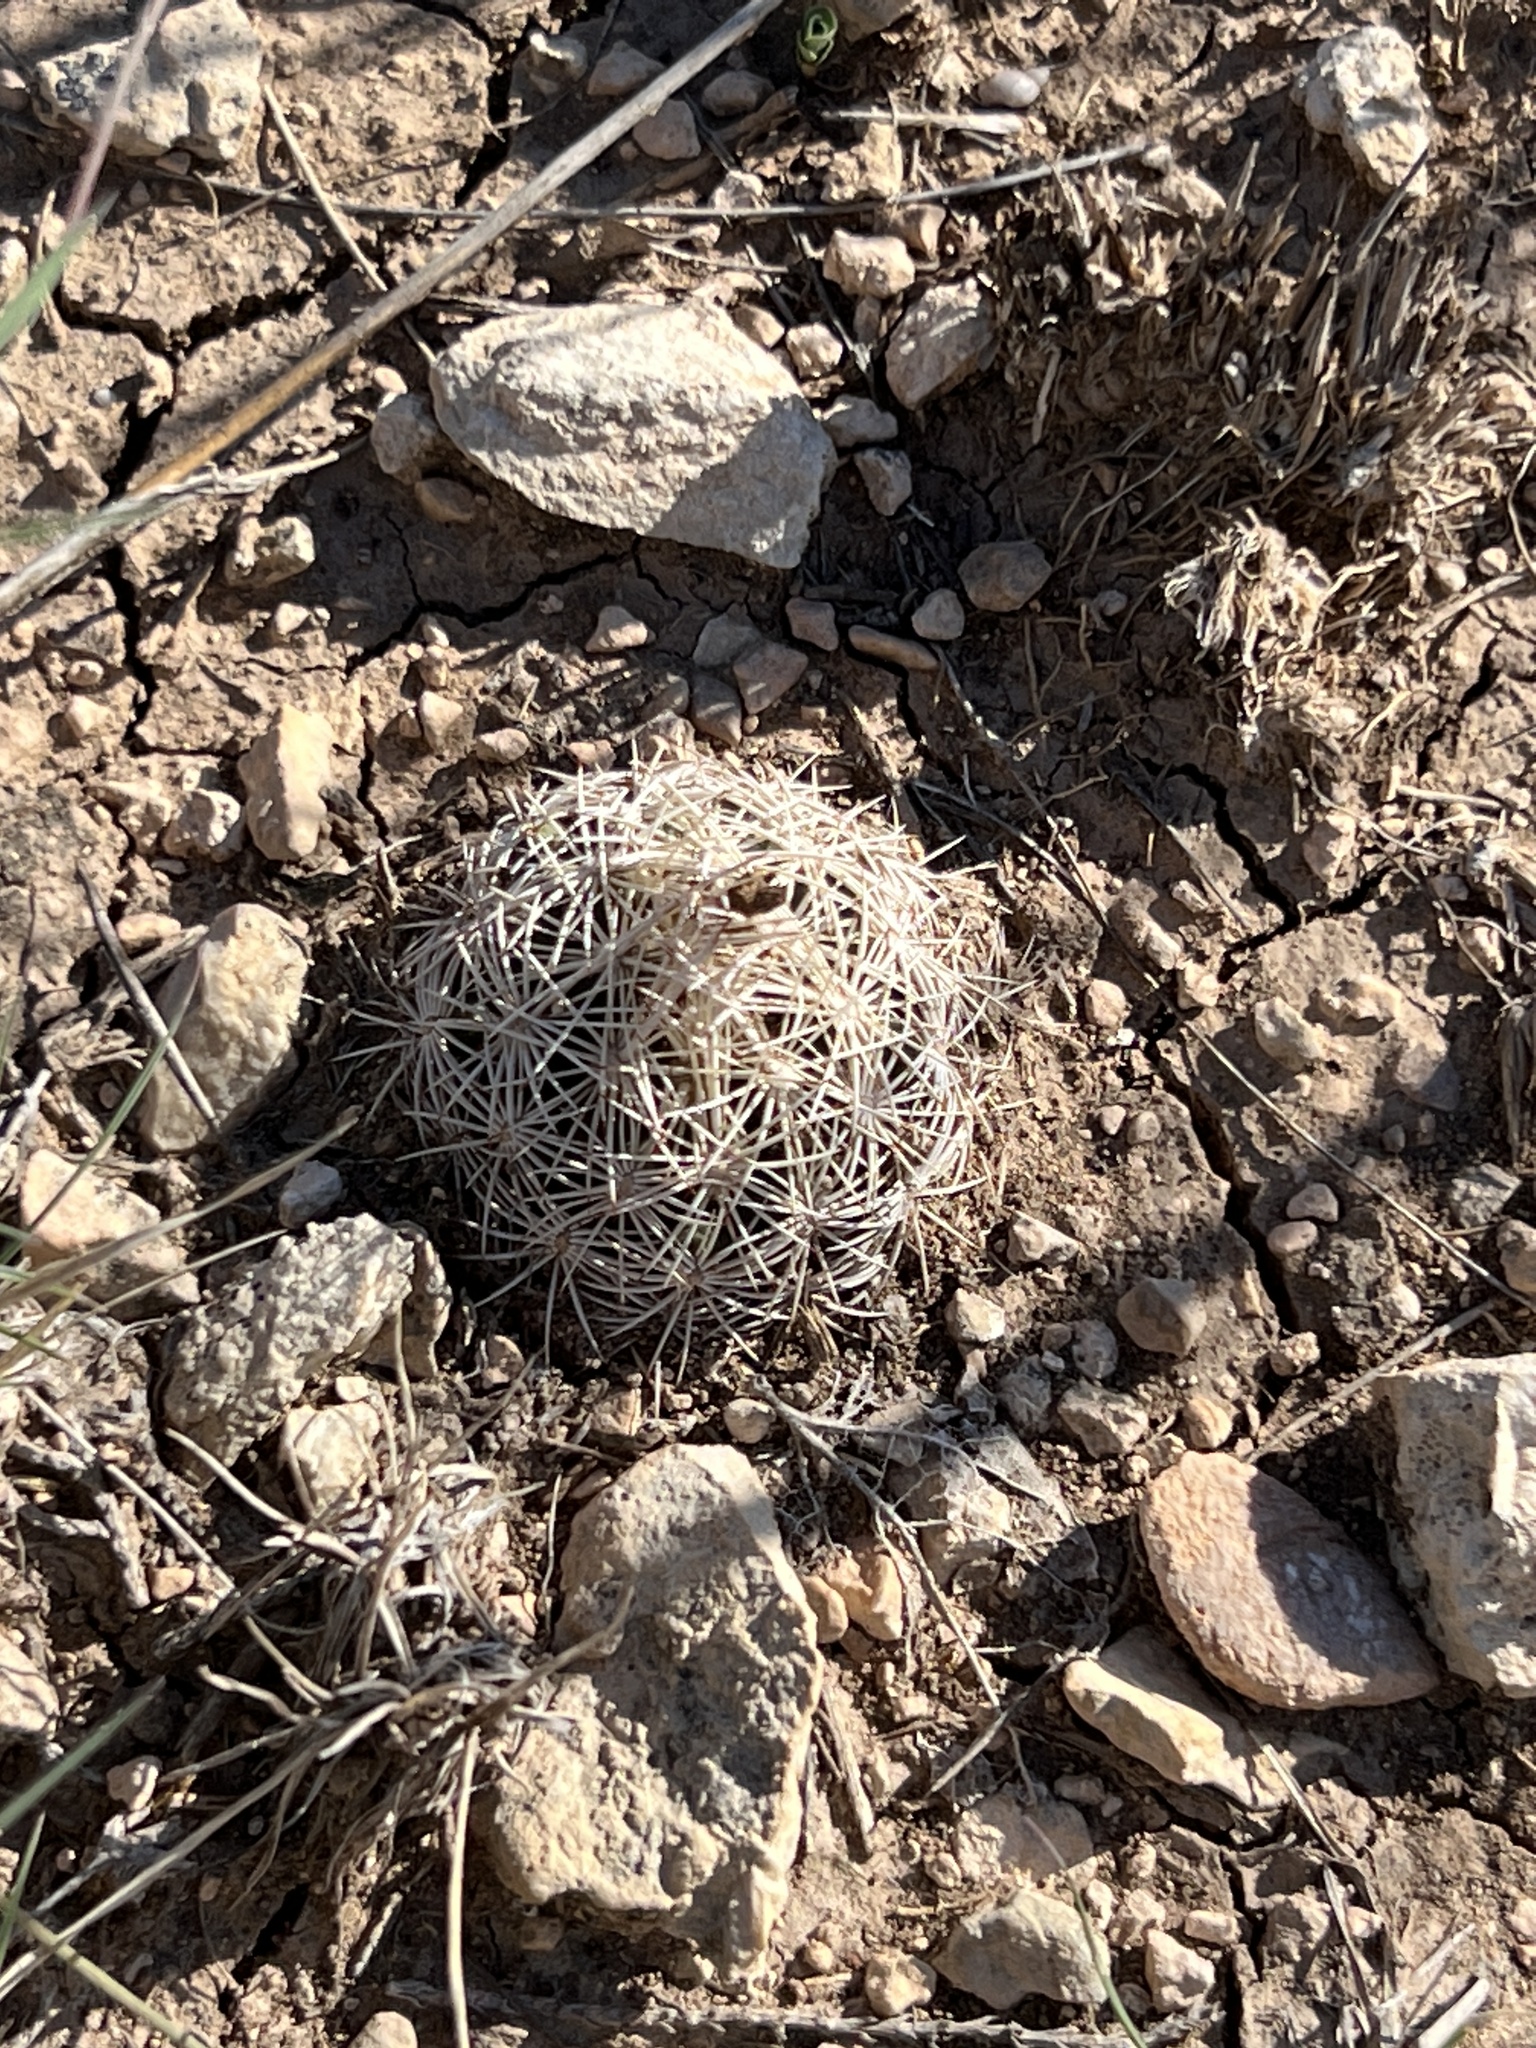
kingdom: Plantae
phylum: Tracheophyta
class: Magnoliopsida
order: Caryophyllales
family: Cactaceae
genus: Coryphantha
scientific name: Coryphantha echinus
